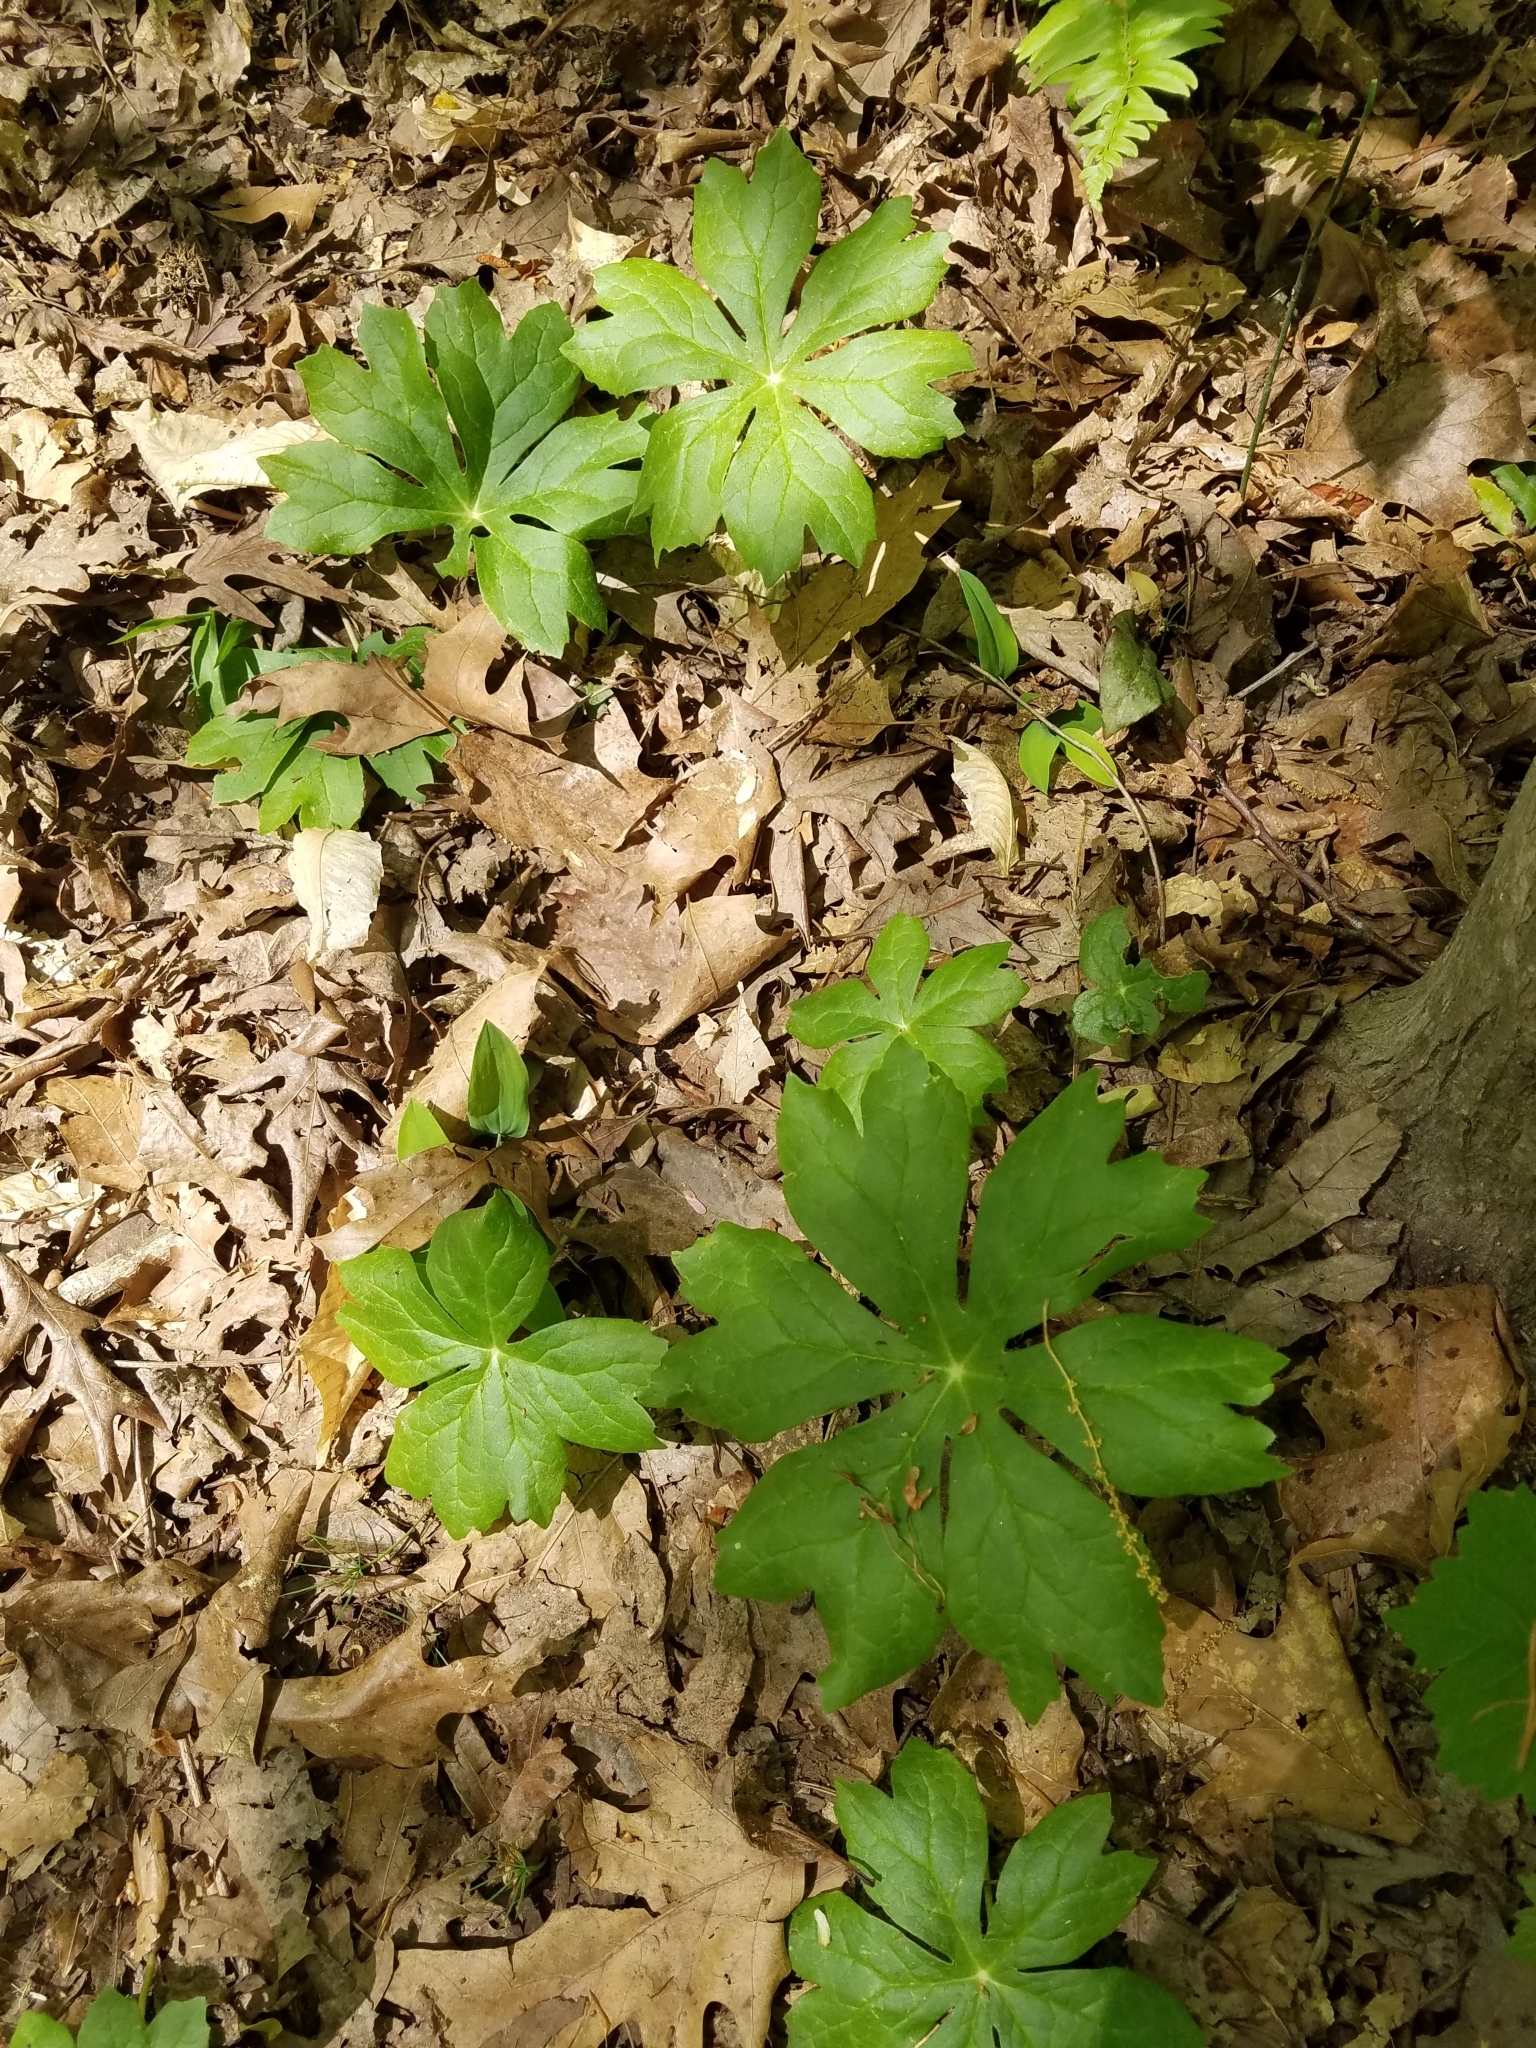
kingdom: Plantae
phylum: Tracheophyta
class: Magnoliopsida
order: Ranunculales
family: Berberidaceae
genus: Podophyllum
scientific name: Podophyllum peltatum
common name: Wild mandrake
